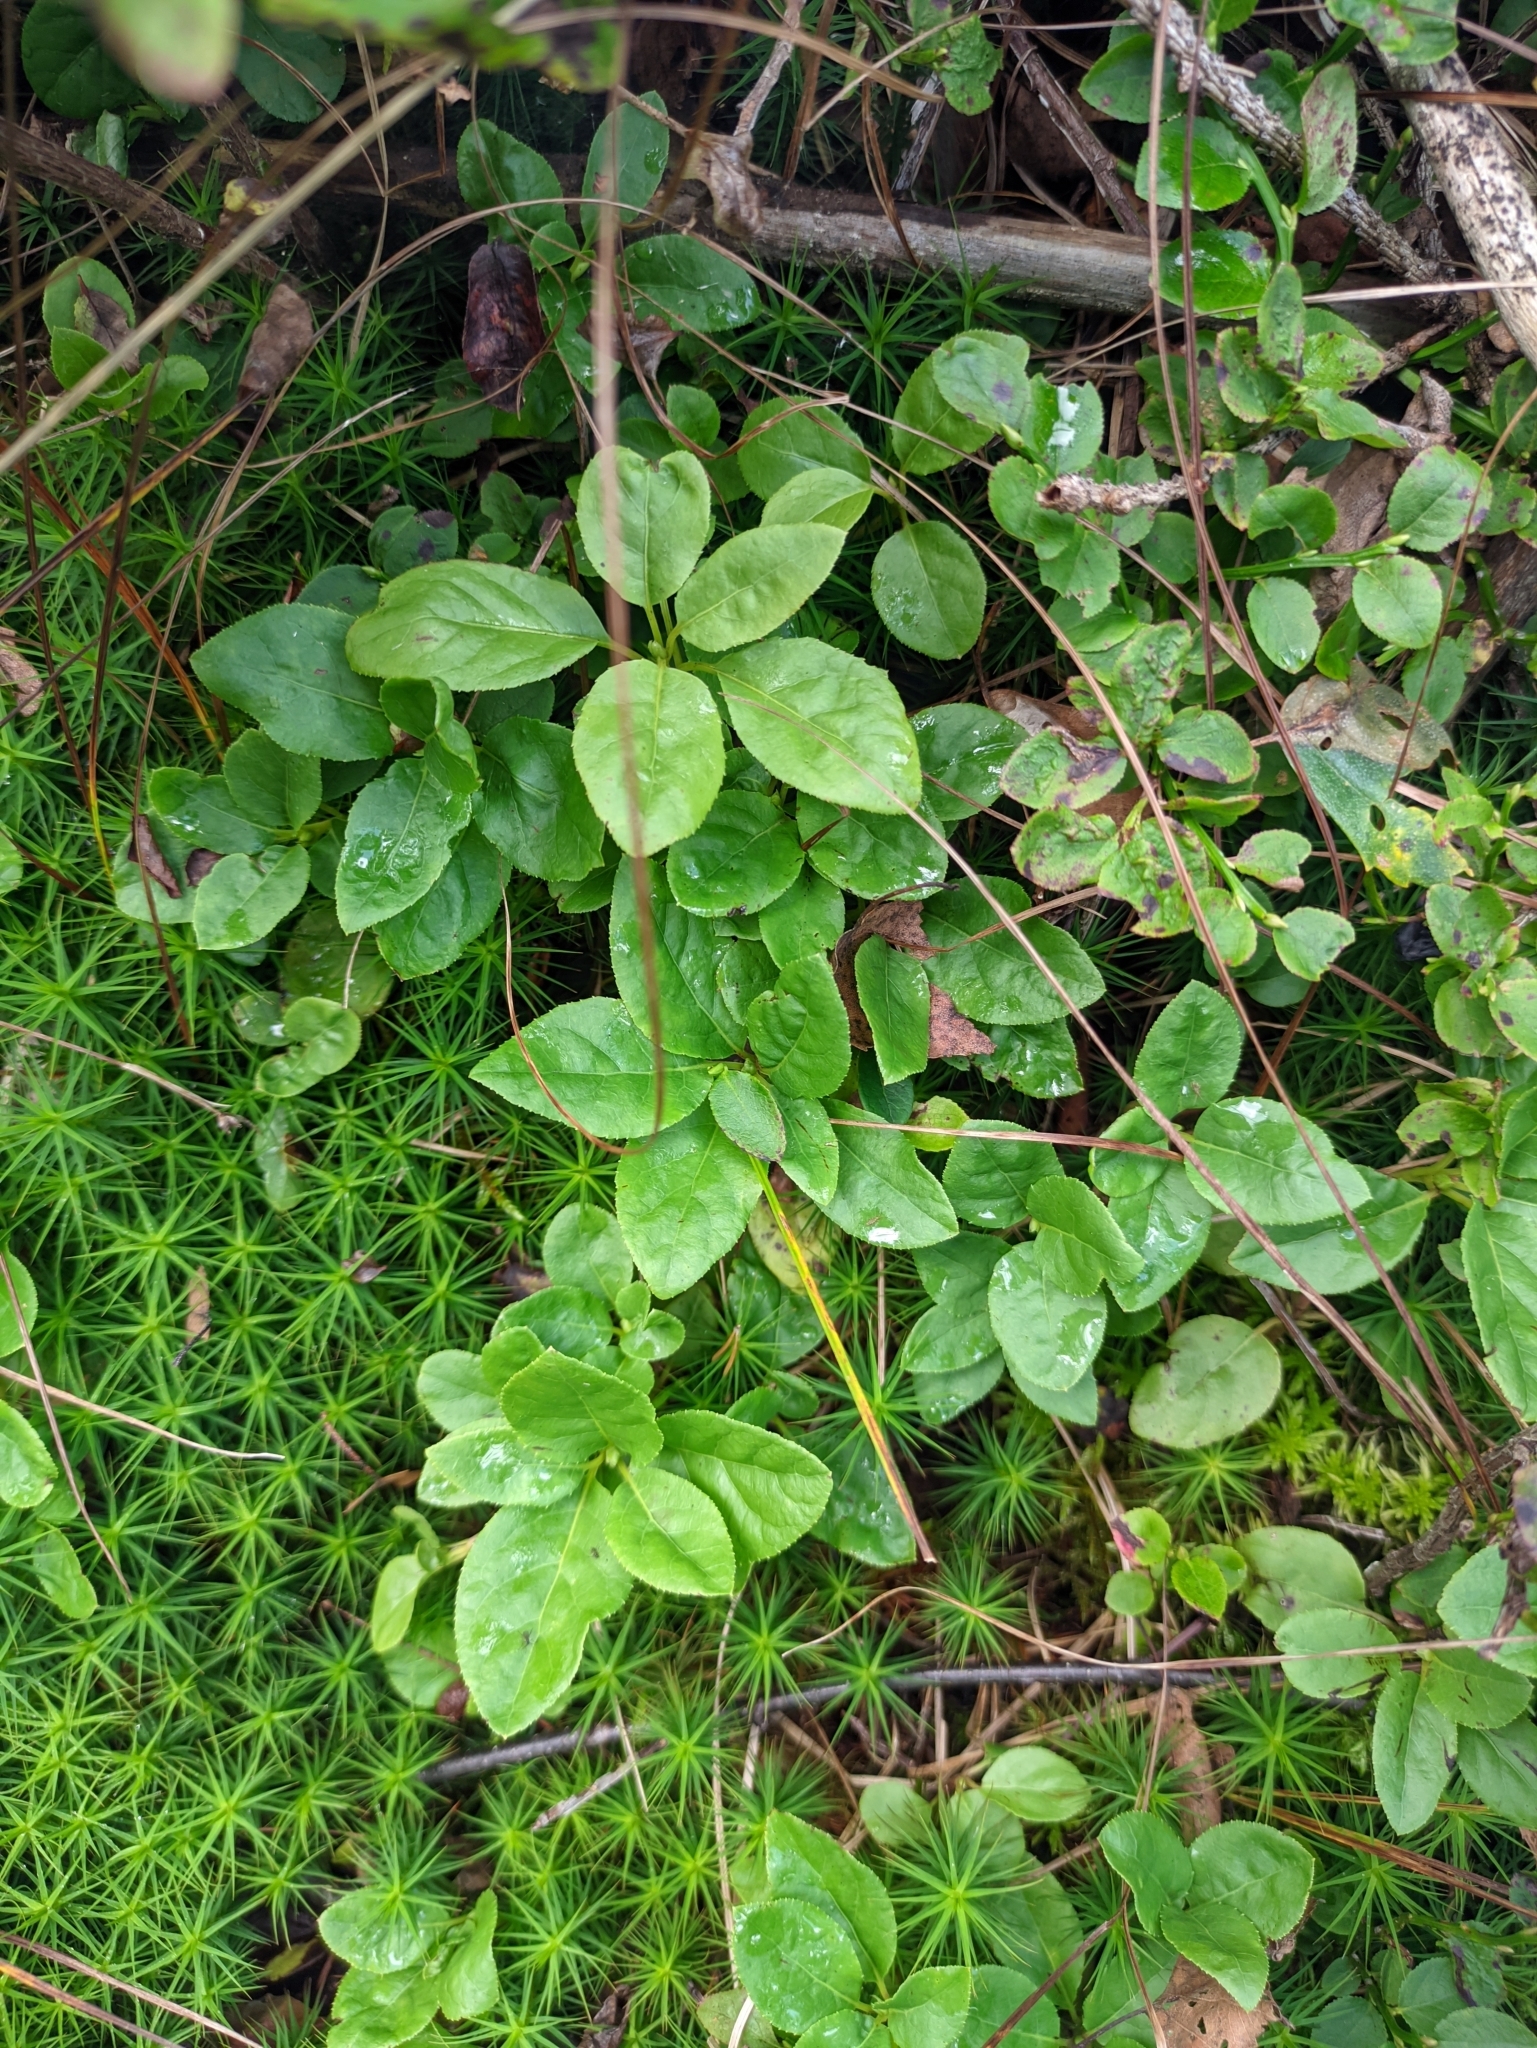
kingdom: Plantae
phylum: Tracheophyta
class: Magnoliopsida
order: Ericales
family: Ericaceae
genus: Orthilia
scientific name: Orthilia secunda
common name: One-sided orthilia
